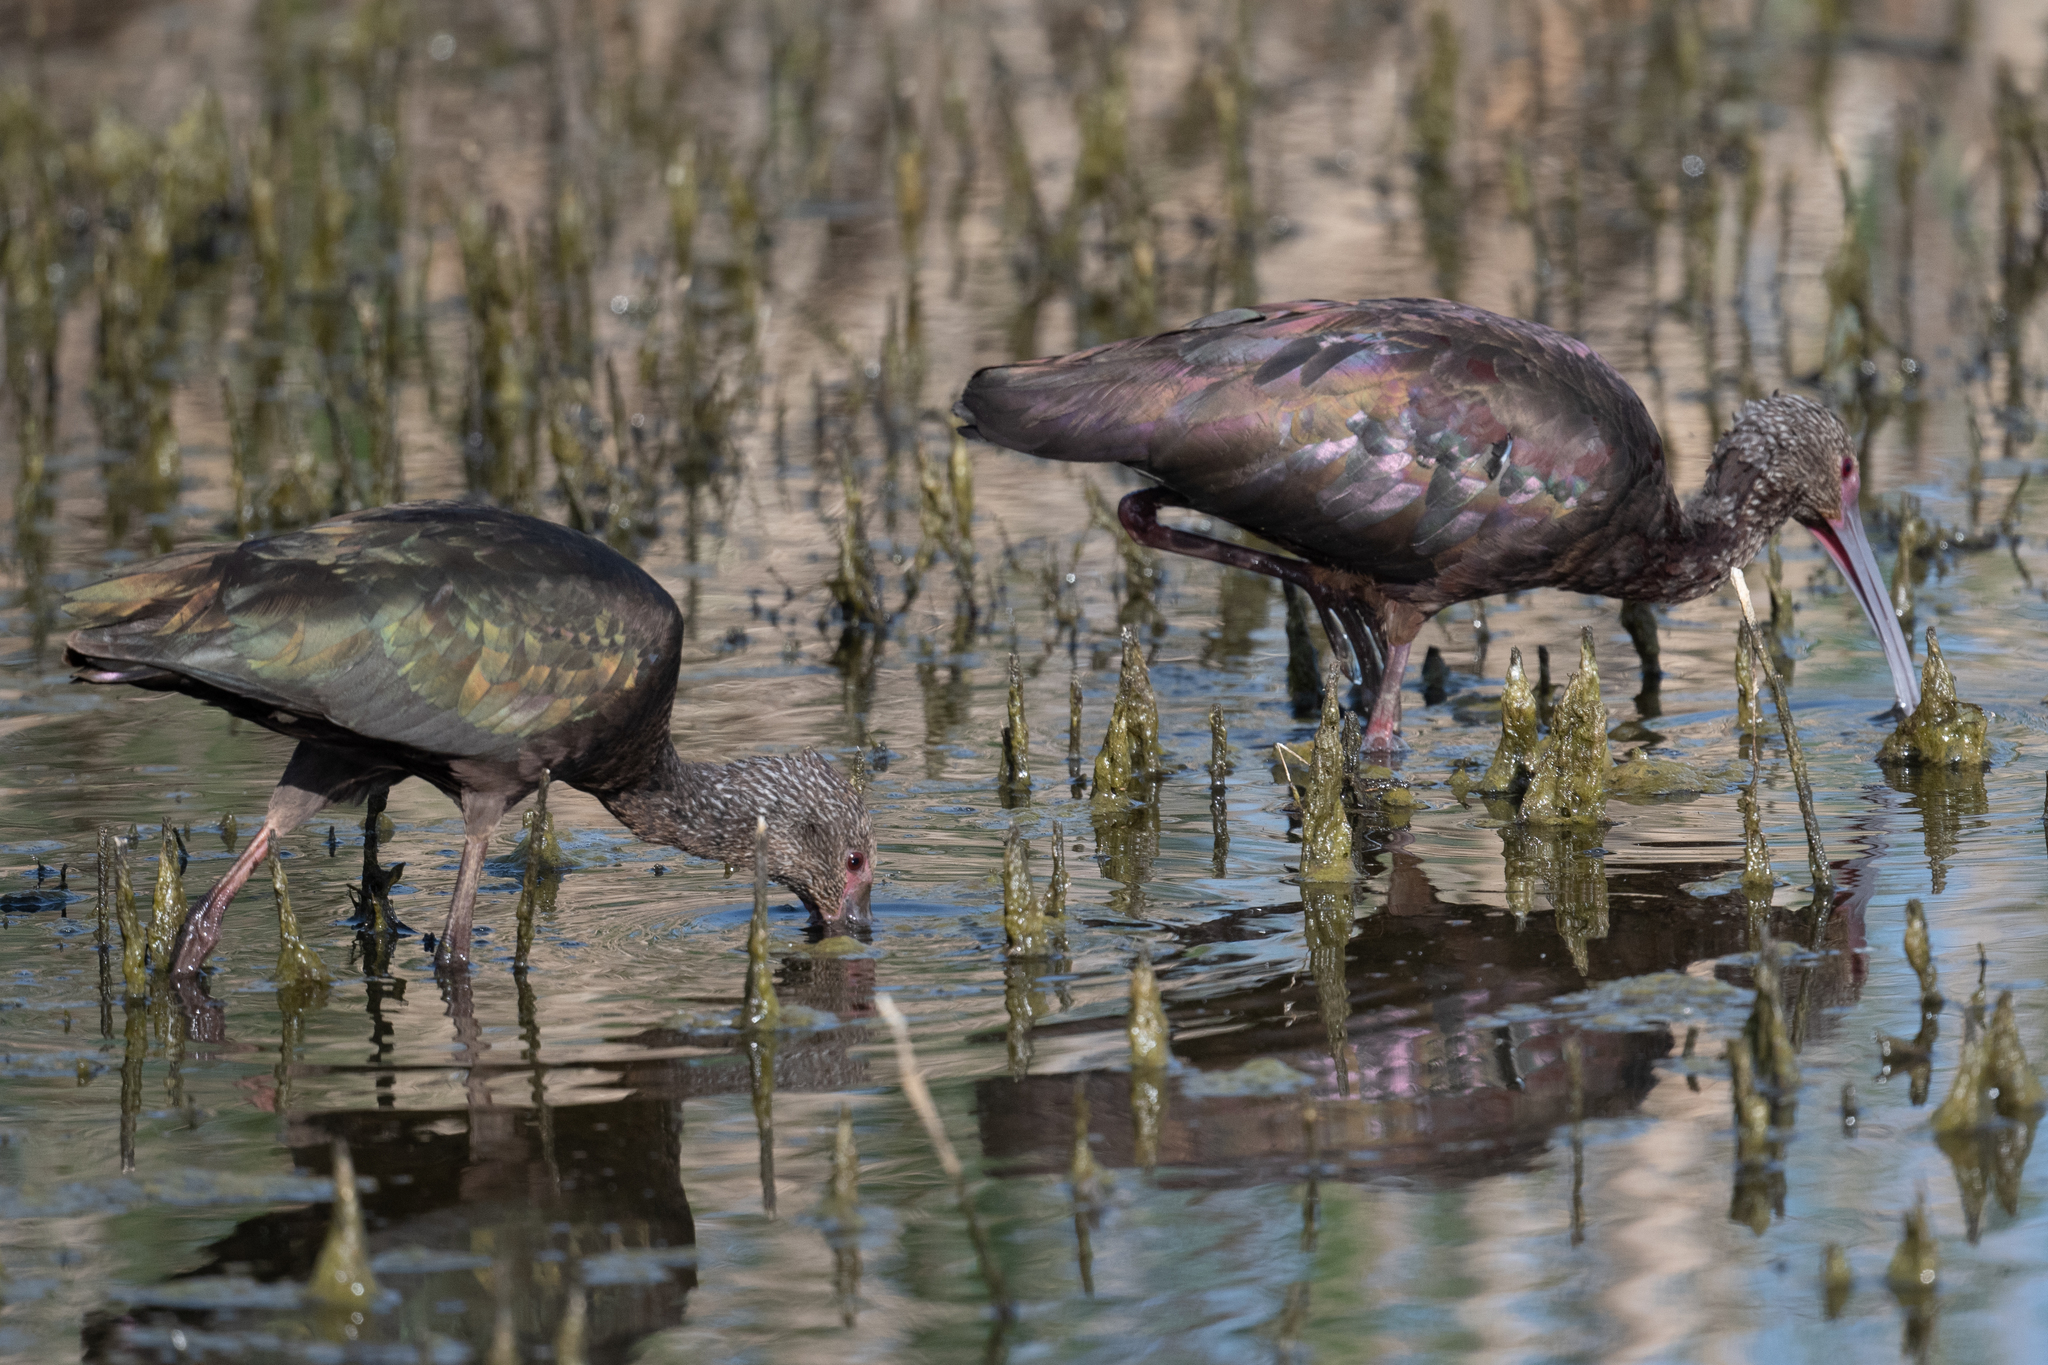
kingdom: Animalia
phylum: Chordata
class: Aves
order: Pelecaniformes
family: Threskiornithidae
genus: Plegadis
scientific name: Plegadis chihi
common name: White-faced ibis
